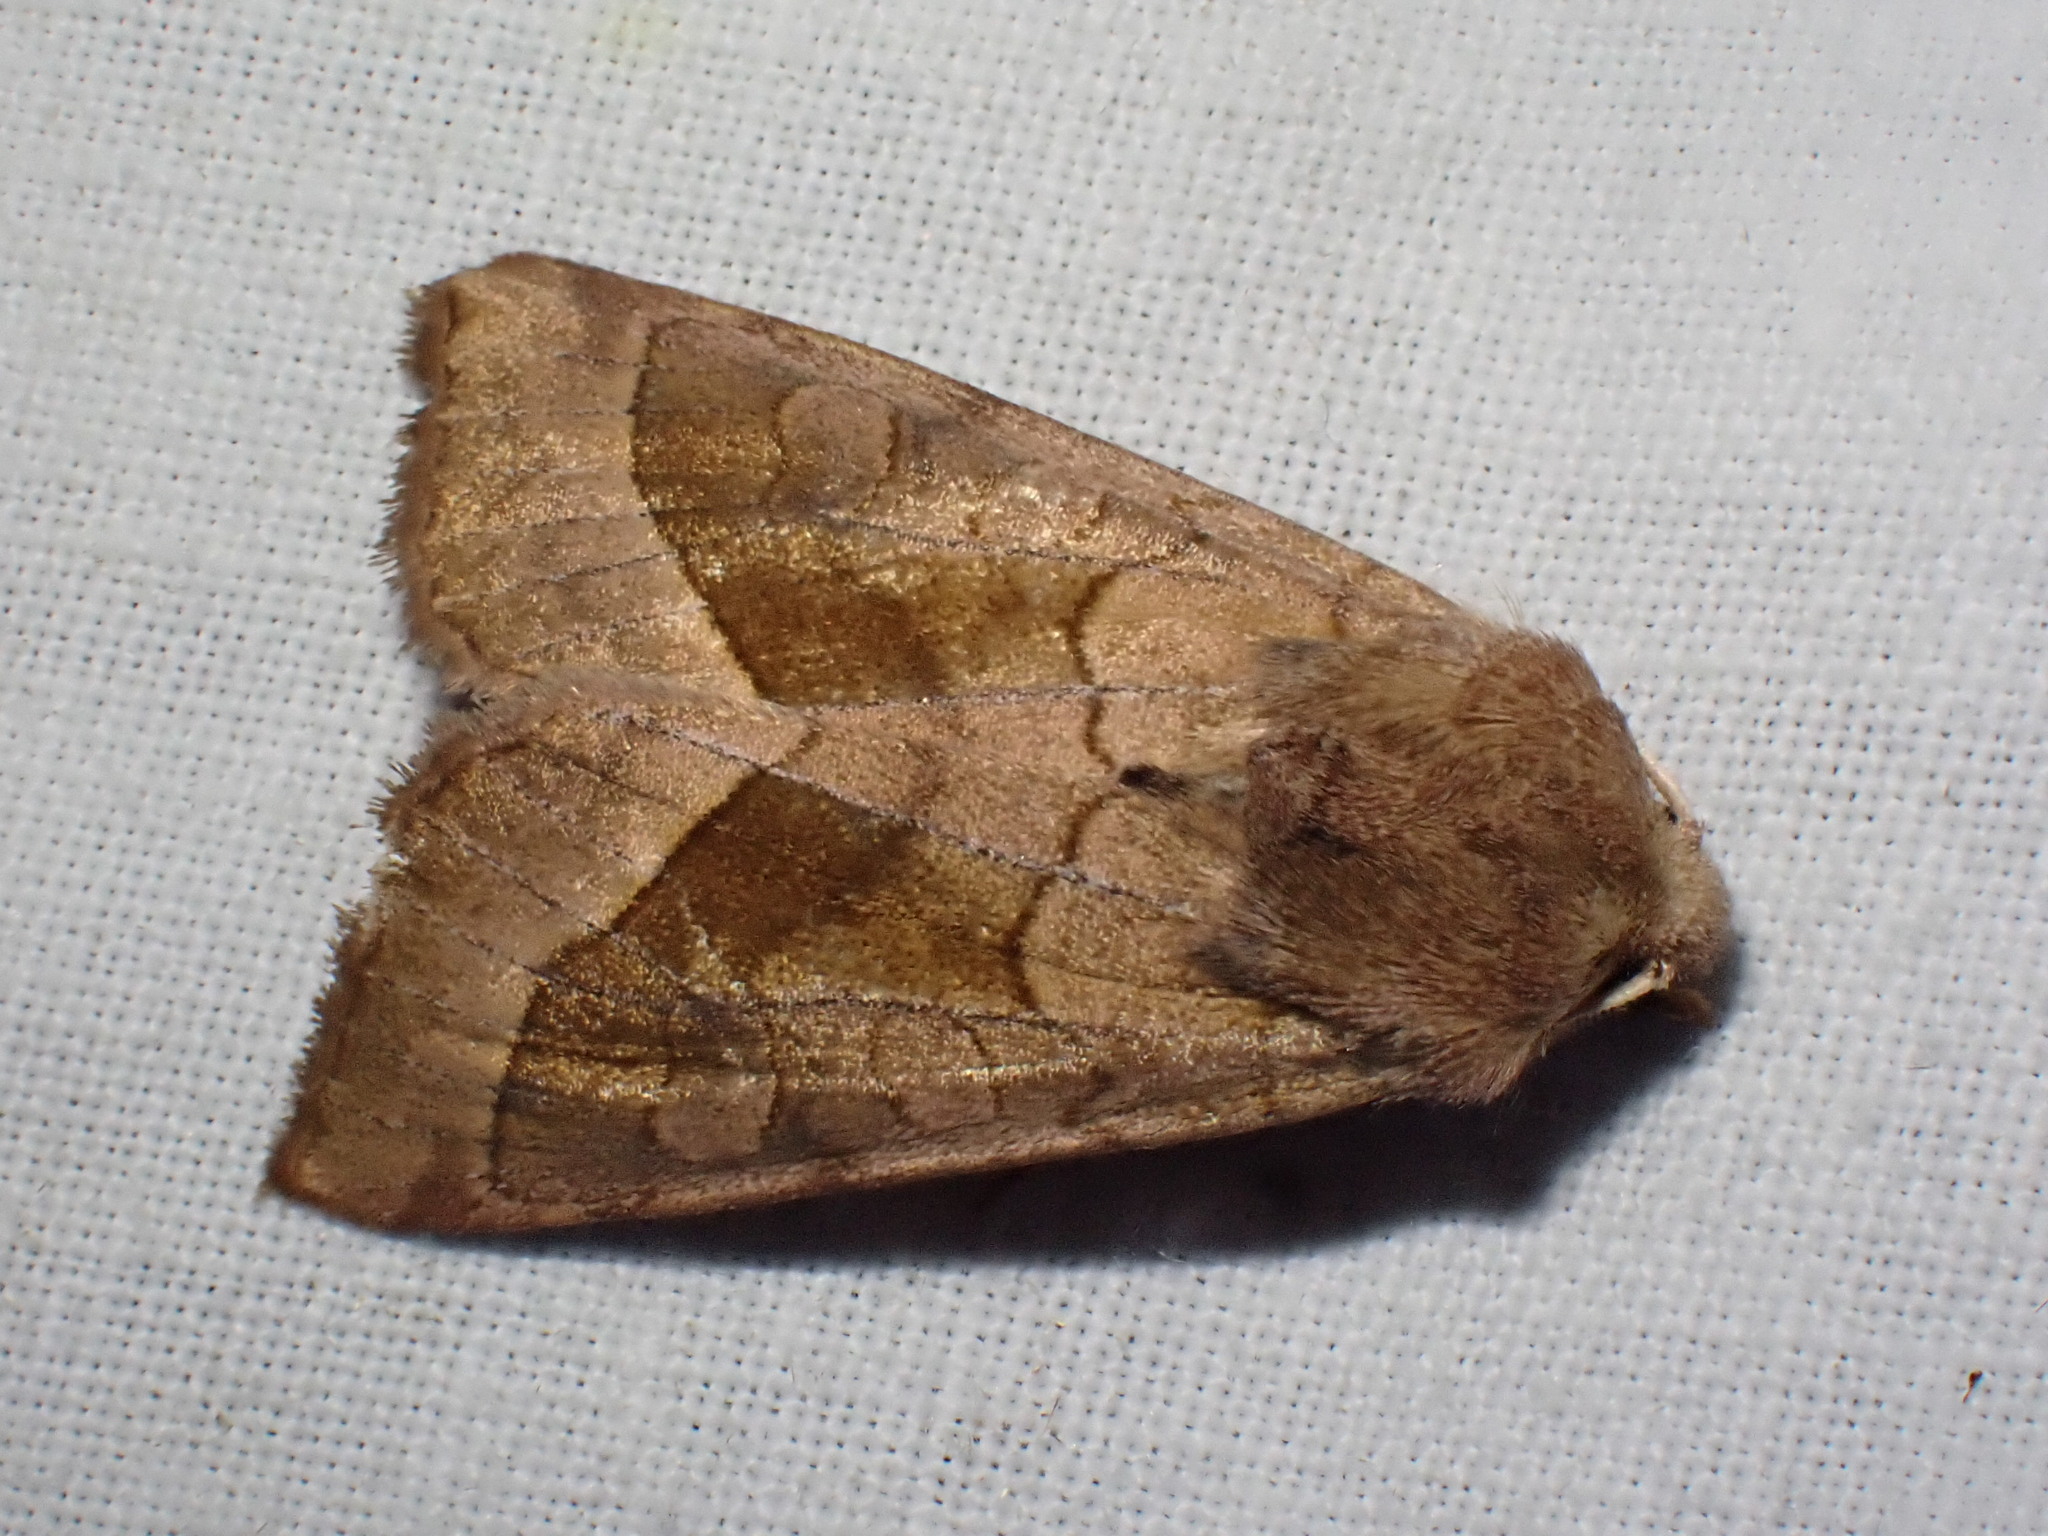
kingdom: Animalia
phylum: Arthropoda
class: Insecta
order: Lepidoptera
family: Noctuidae
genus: Hydraecia
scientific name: Hydraecia micacea
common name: Rosy rustic
